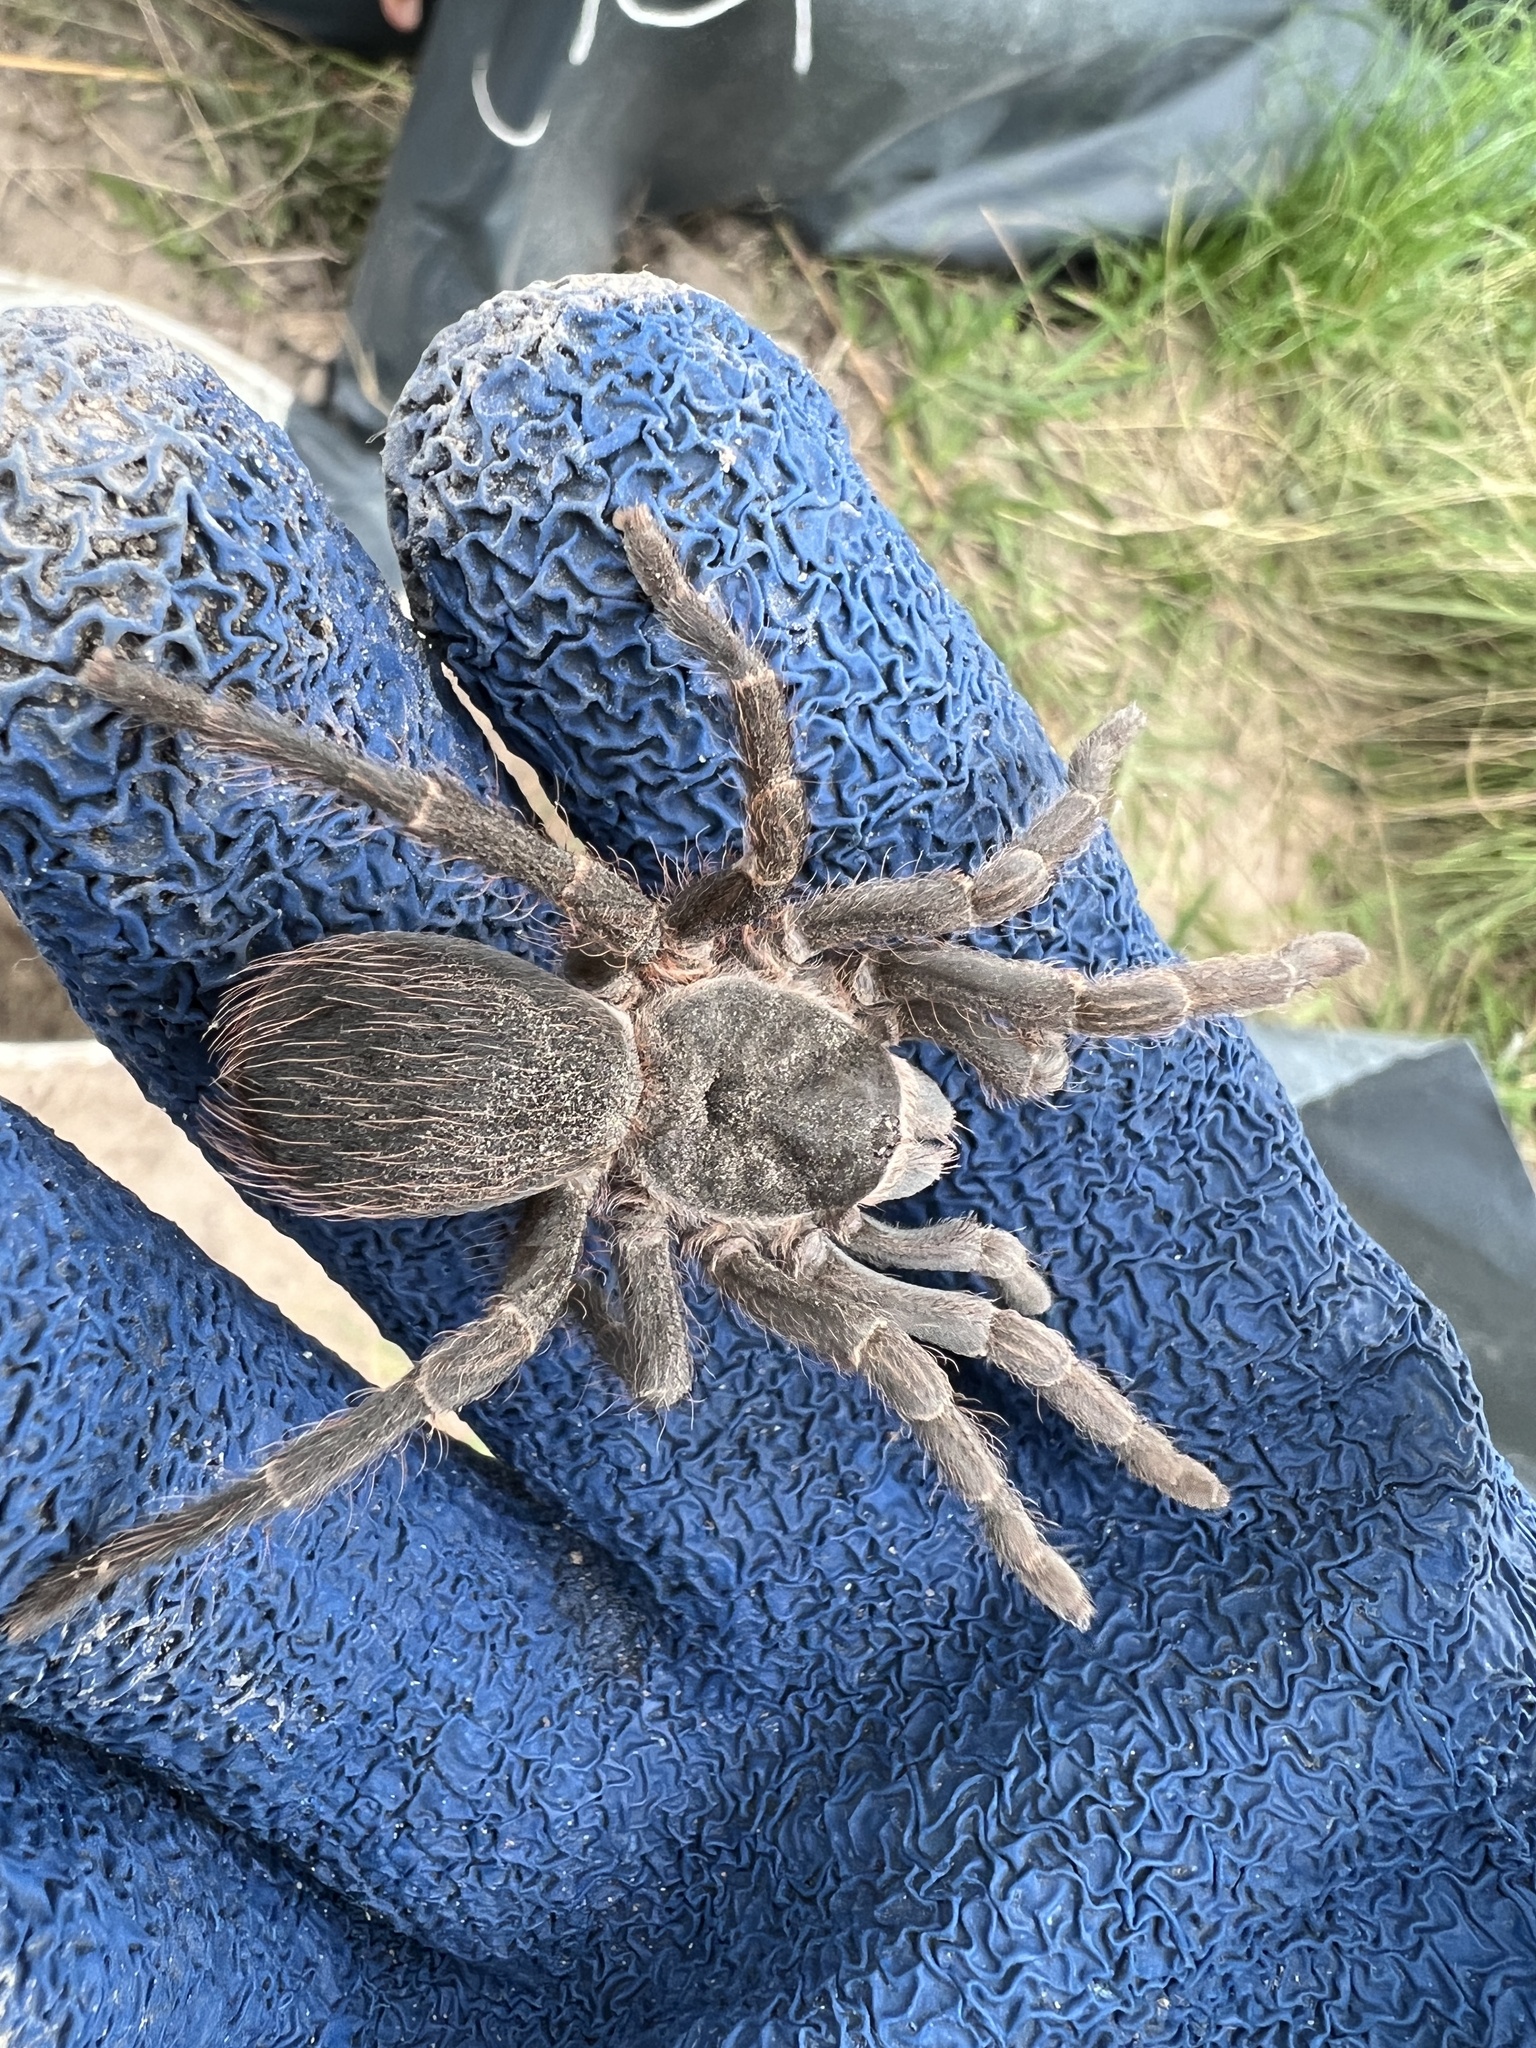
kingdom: Animalia
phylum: Arthropoda
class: Arachnida
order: Araneae
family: Theraphosidae
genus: Vitalius
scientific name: Vitalius roseus
